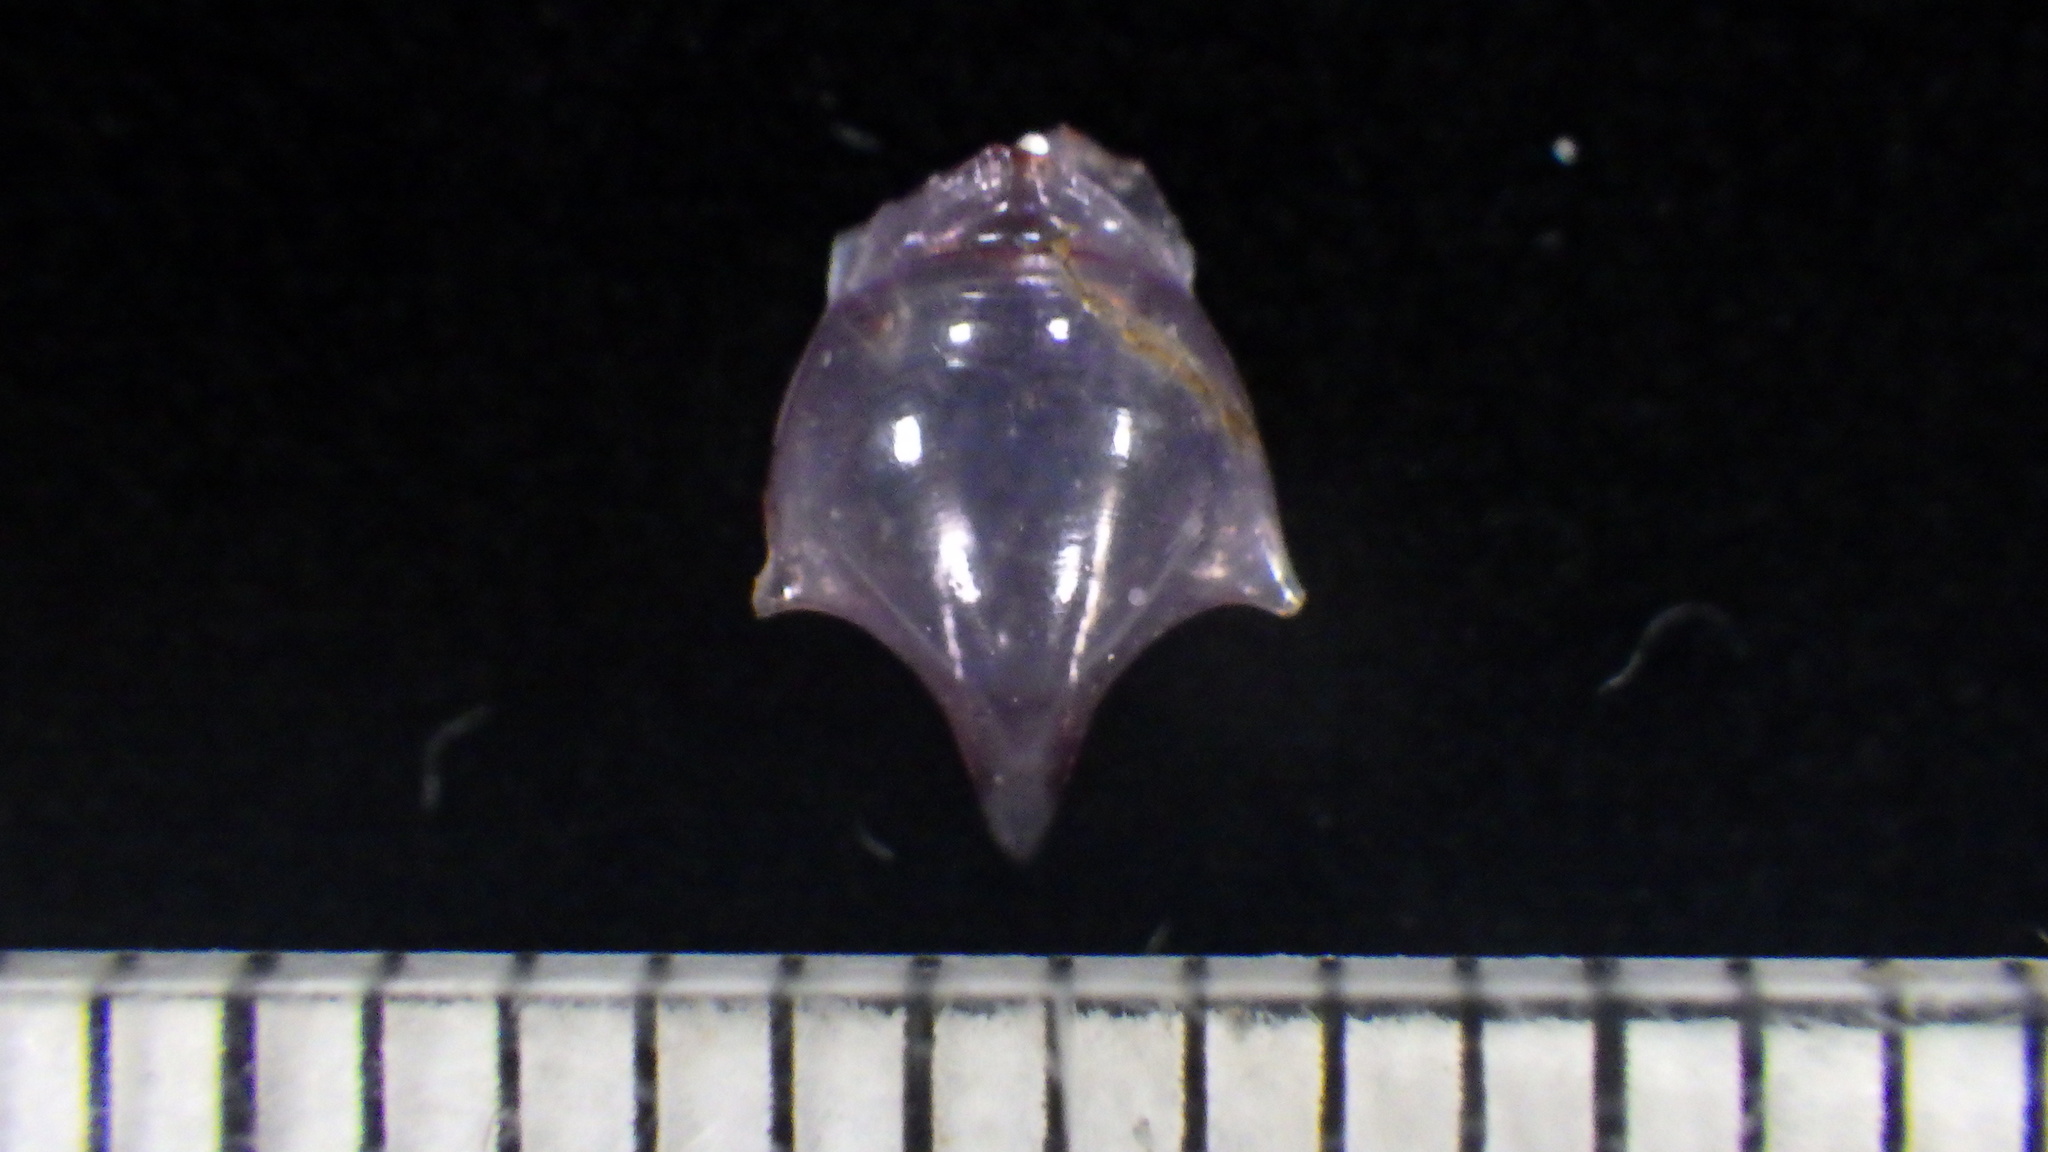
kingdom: Animalia
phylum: Mollusca
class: Gastropoda
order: Pteropoda
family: Cavoliniidae
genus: Cavolinia
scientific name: Cavolinia inflexa
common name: Inflexed cavoline
